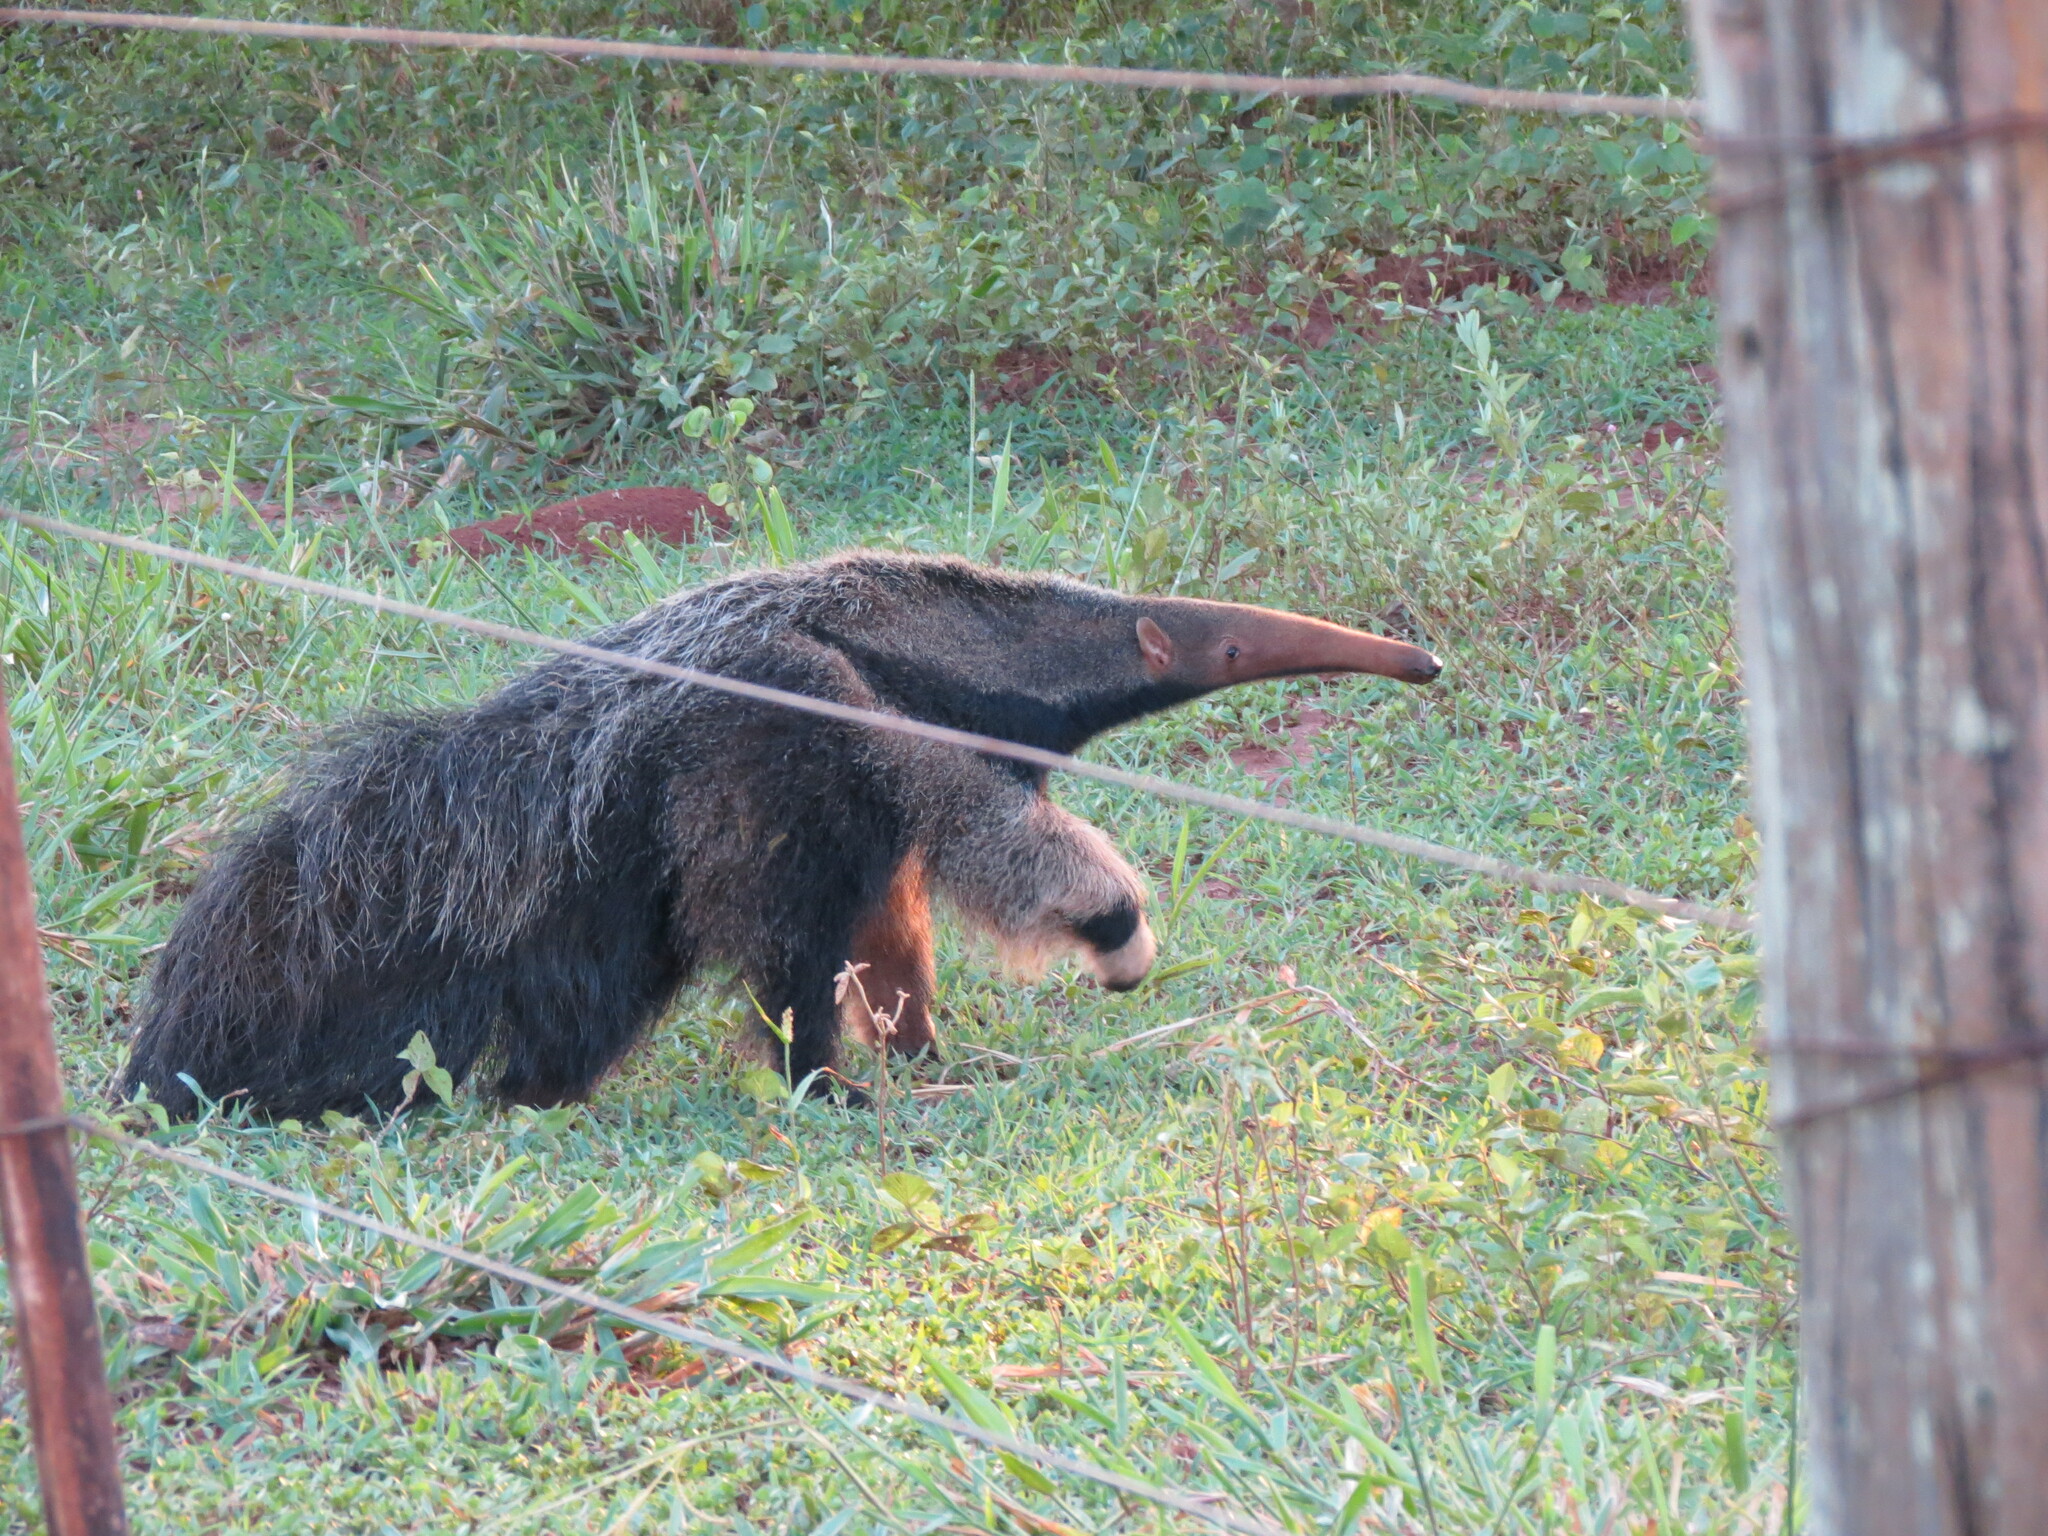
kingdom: Animalia
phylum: Chordata
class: Mammalia
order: Pilosa
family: Myrmecophagidae
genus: Myrmecophaga
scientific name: Myrmecophaga tridactyla
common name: Giant anteater
